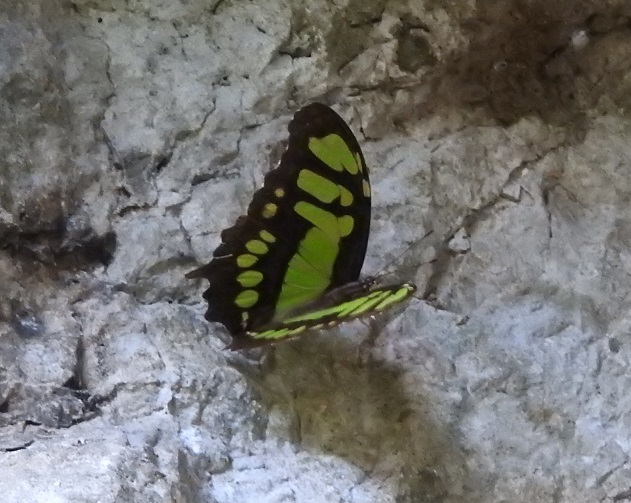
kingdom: Animalia
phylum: Arthropoda
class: Insecta
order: Lepidoptera
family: Nymphalidae
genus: Siproeta
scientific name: Siproeta stelenes
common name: Malachite
